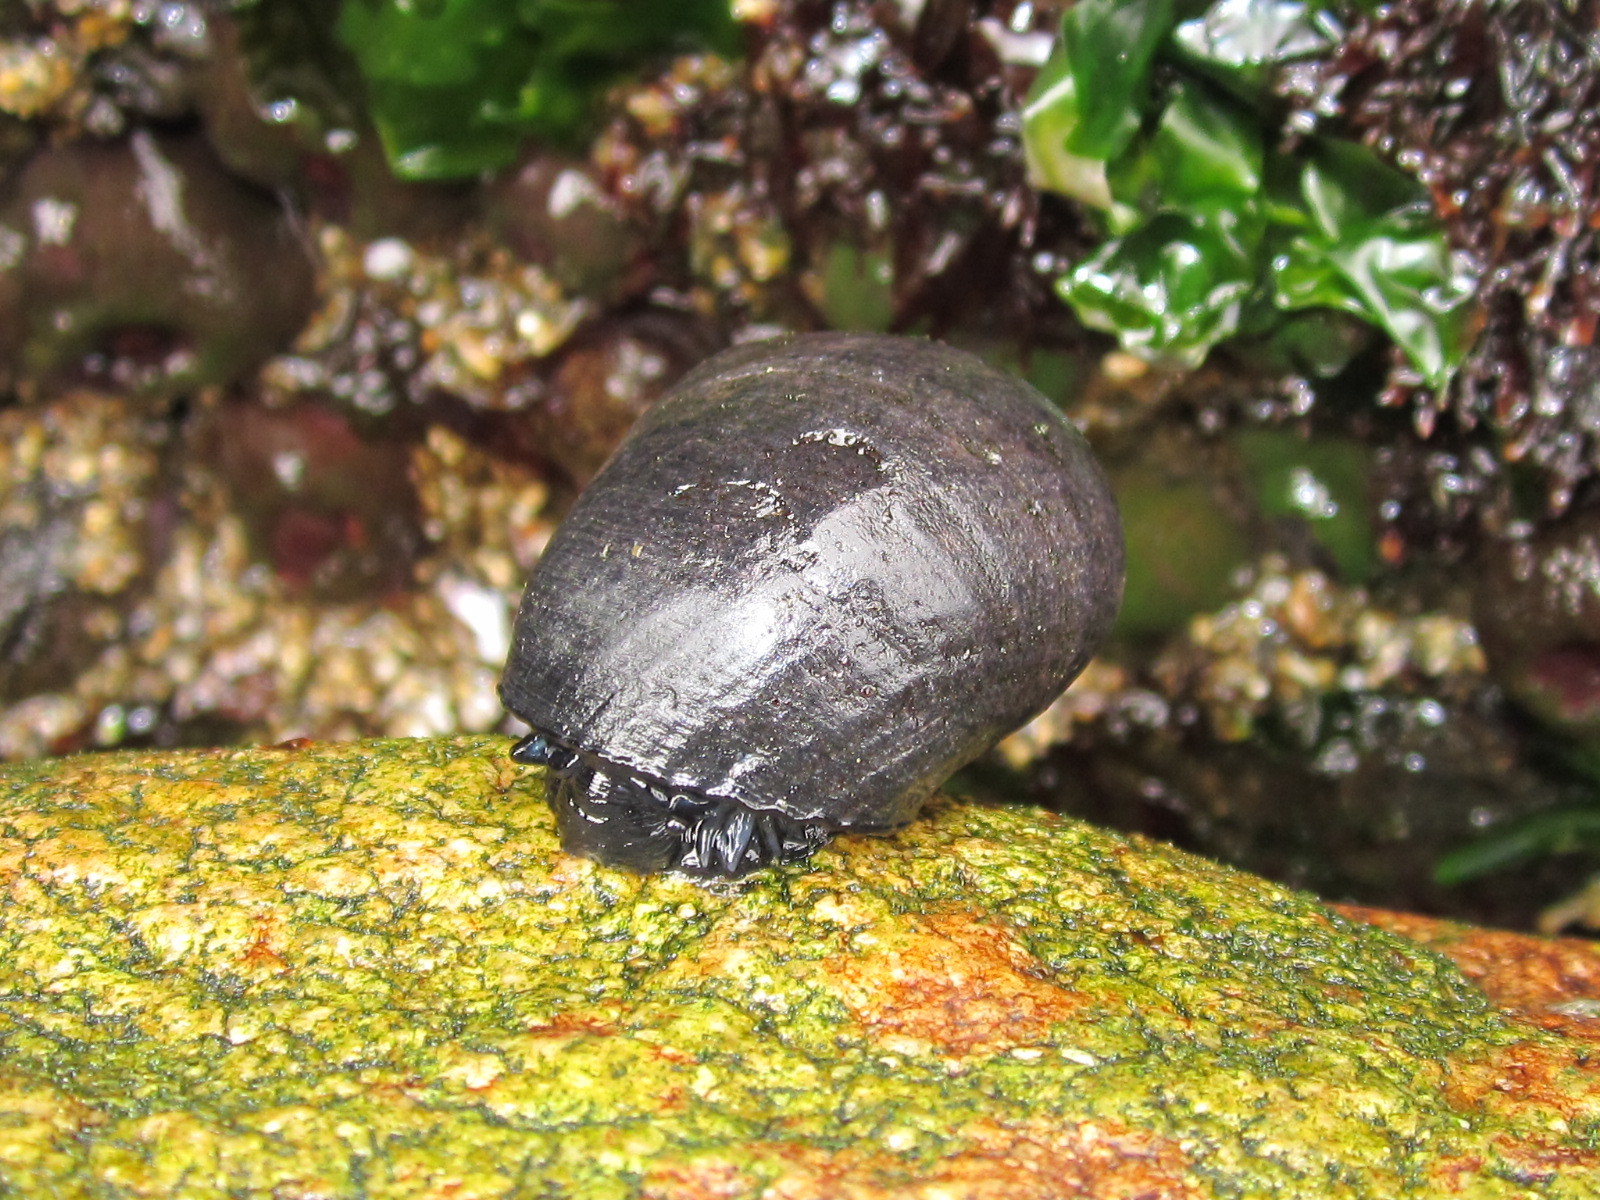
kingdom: Animalia
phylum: Mollusca
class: Gastropoda
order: Neogastropoda
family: Muricidae
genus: Acanthina
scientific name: Acanthina monodon
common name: One-toothed thais
